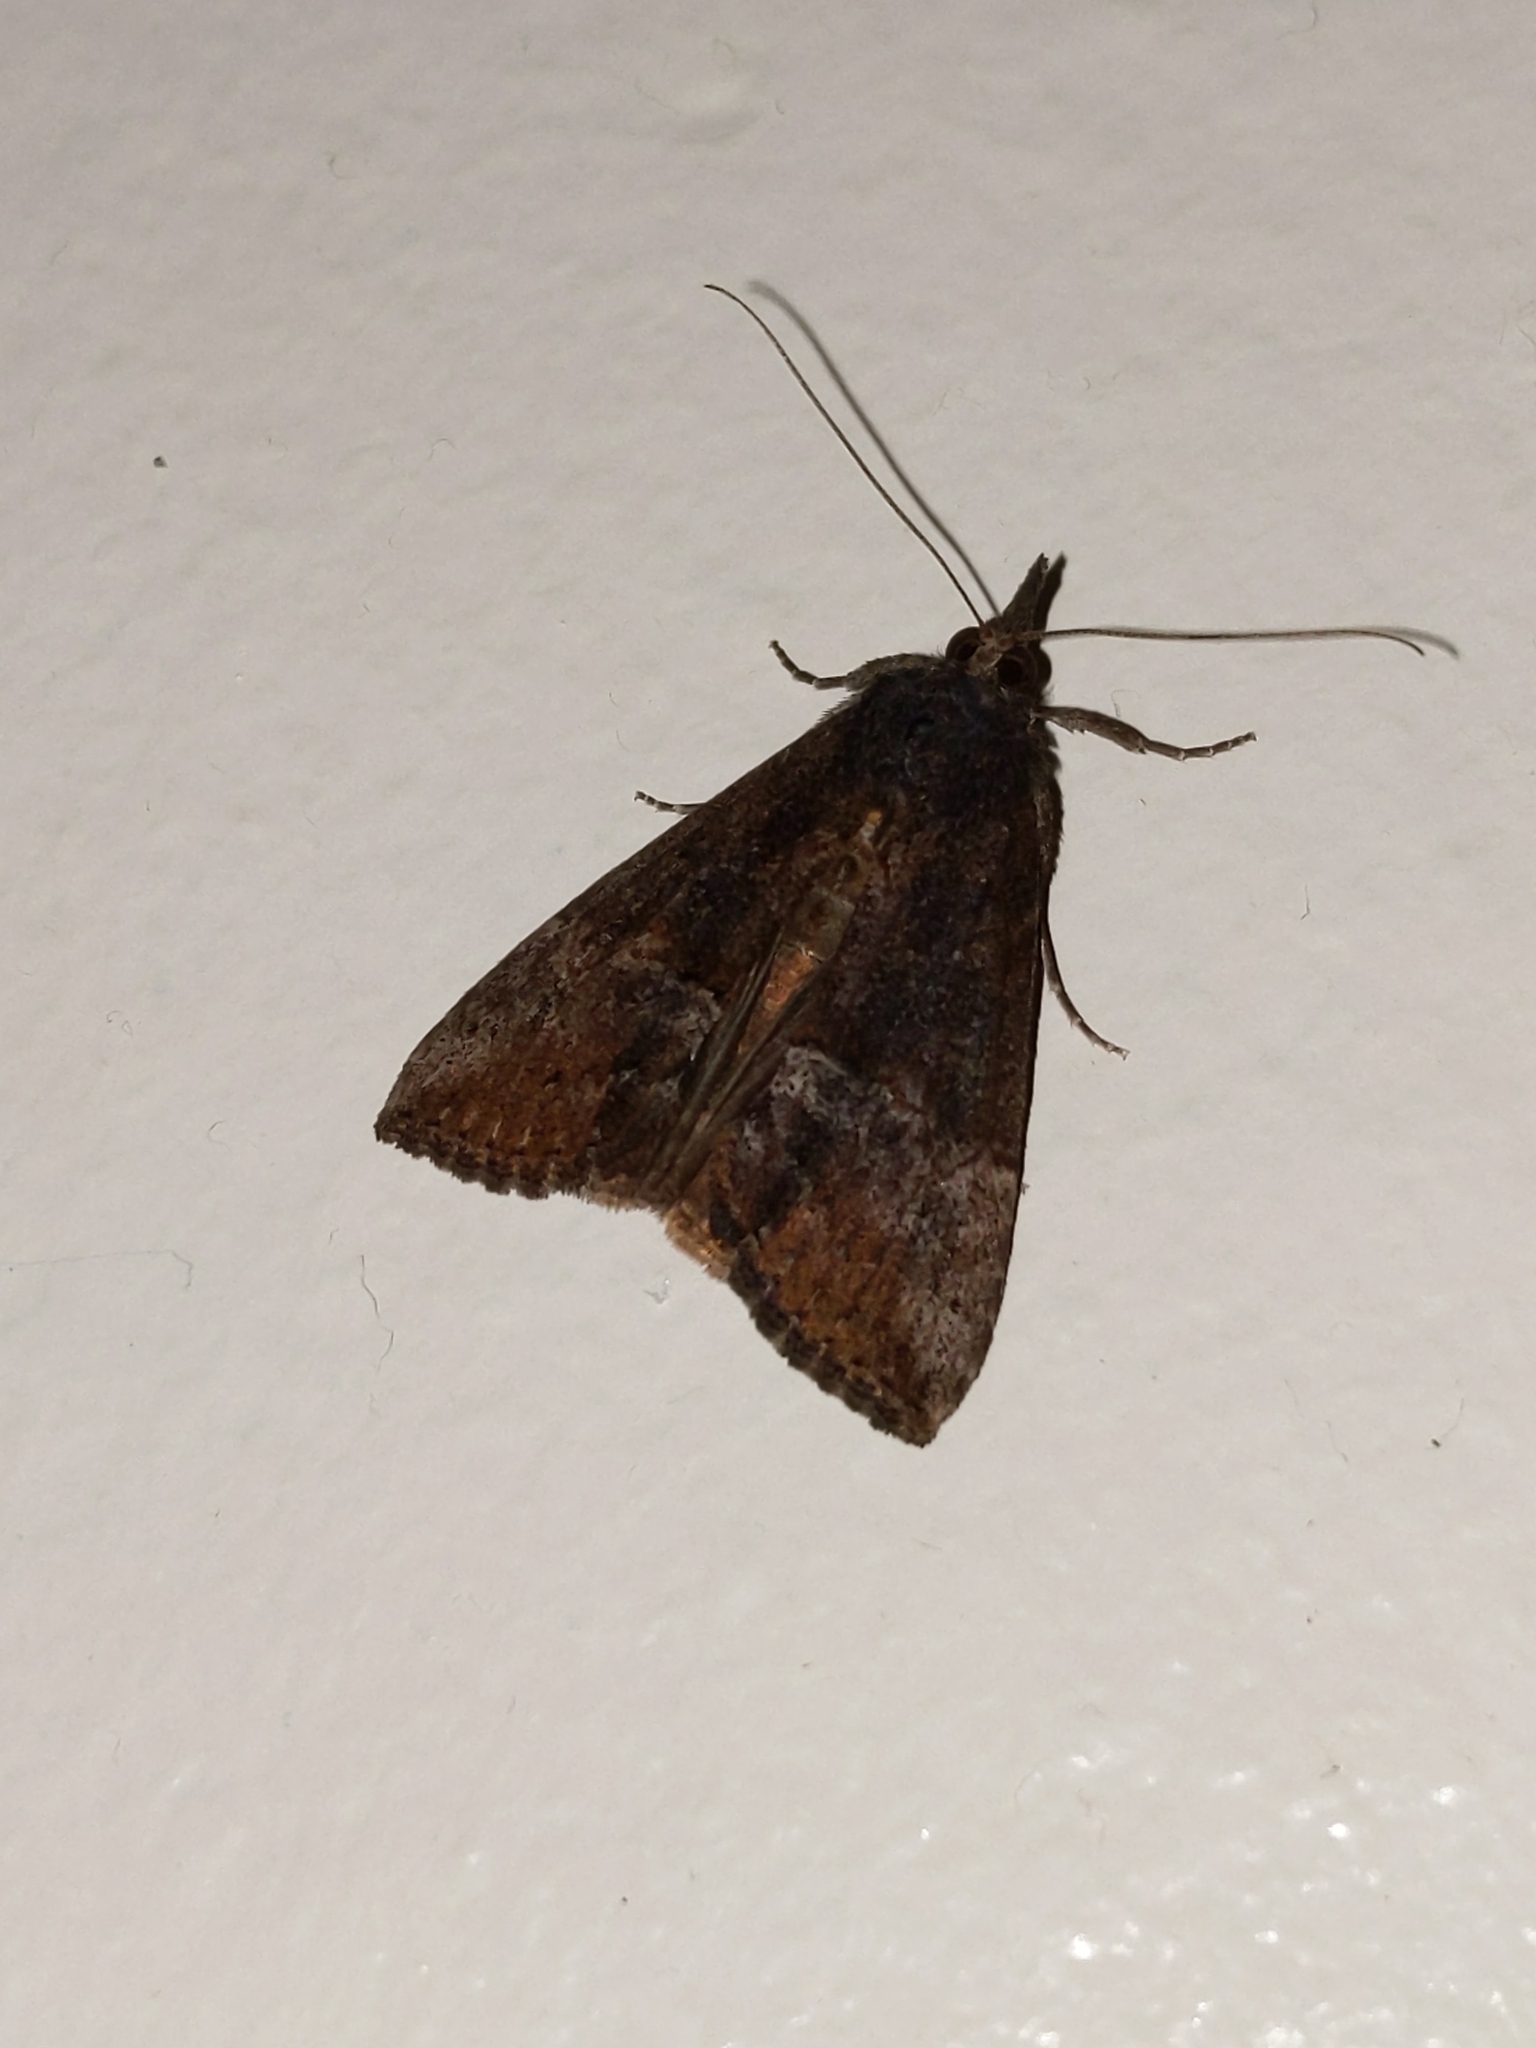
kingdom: Animalia
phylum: Arthropoda
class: Insecta
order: Lepidoptera
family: Erebidae
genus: Hypena
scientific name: Hypena scabra
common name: Green cloverworm
